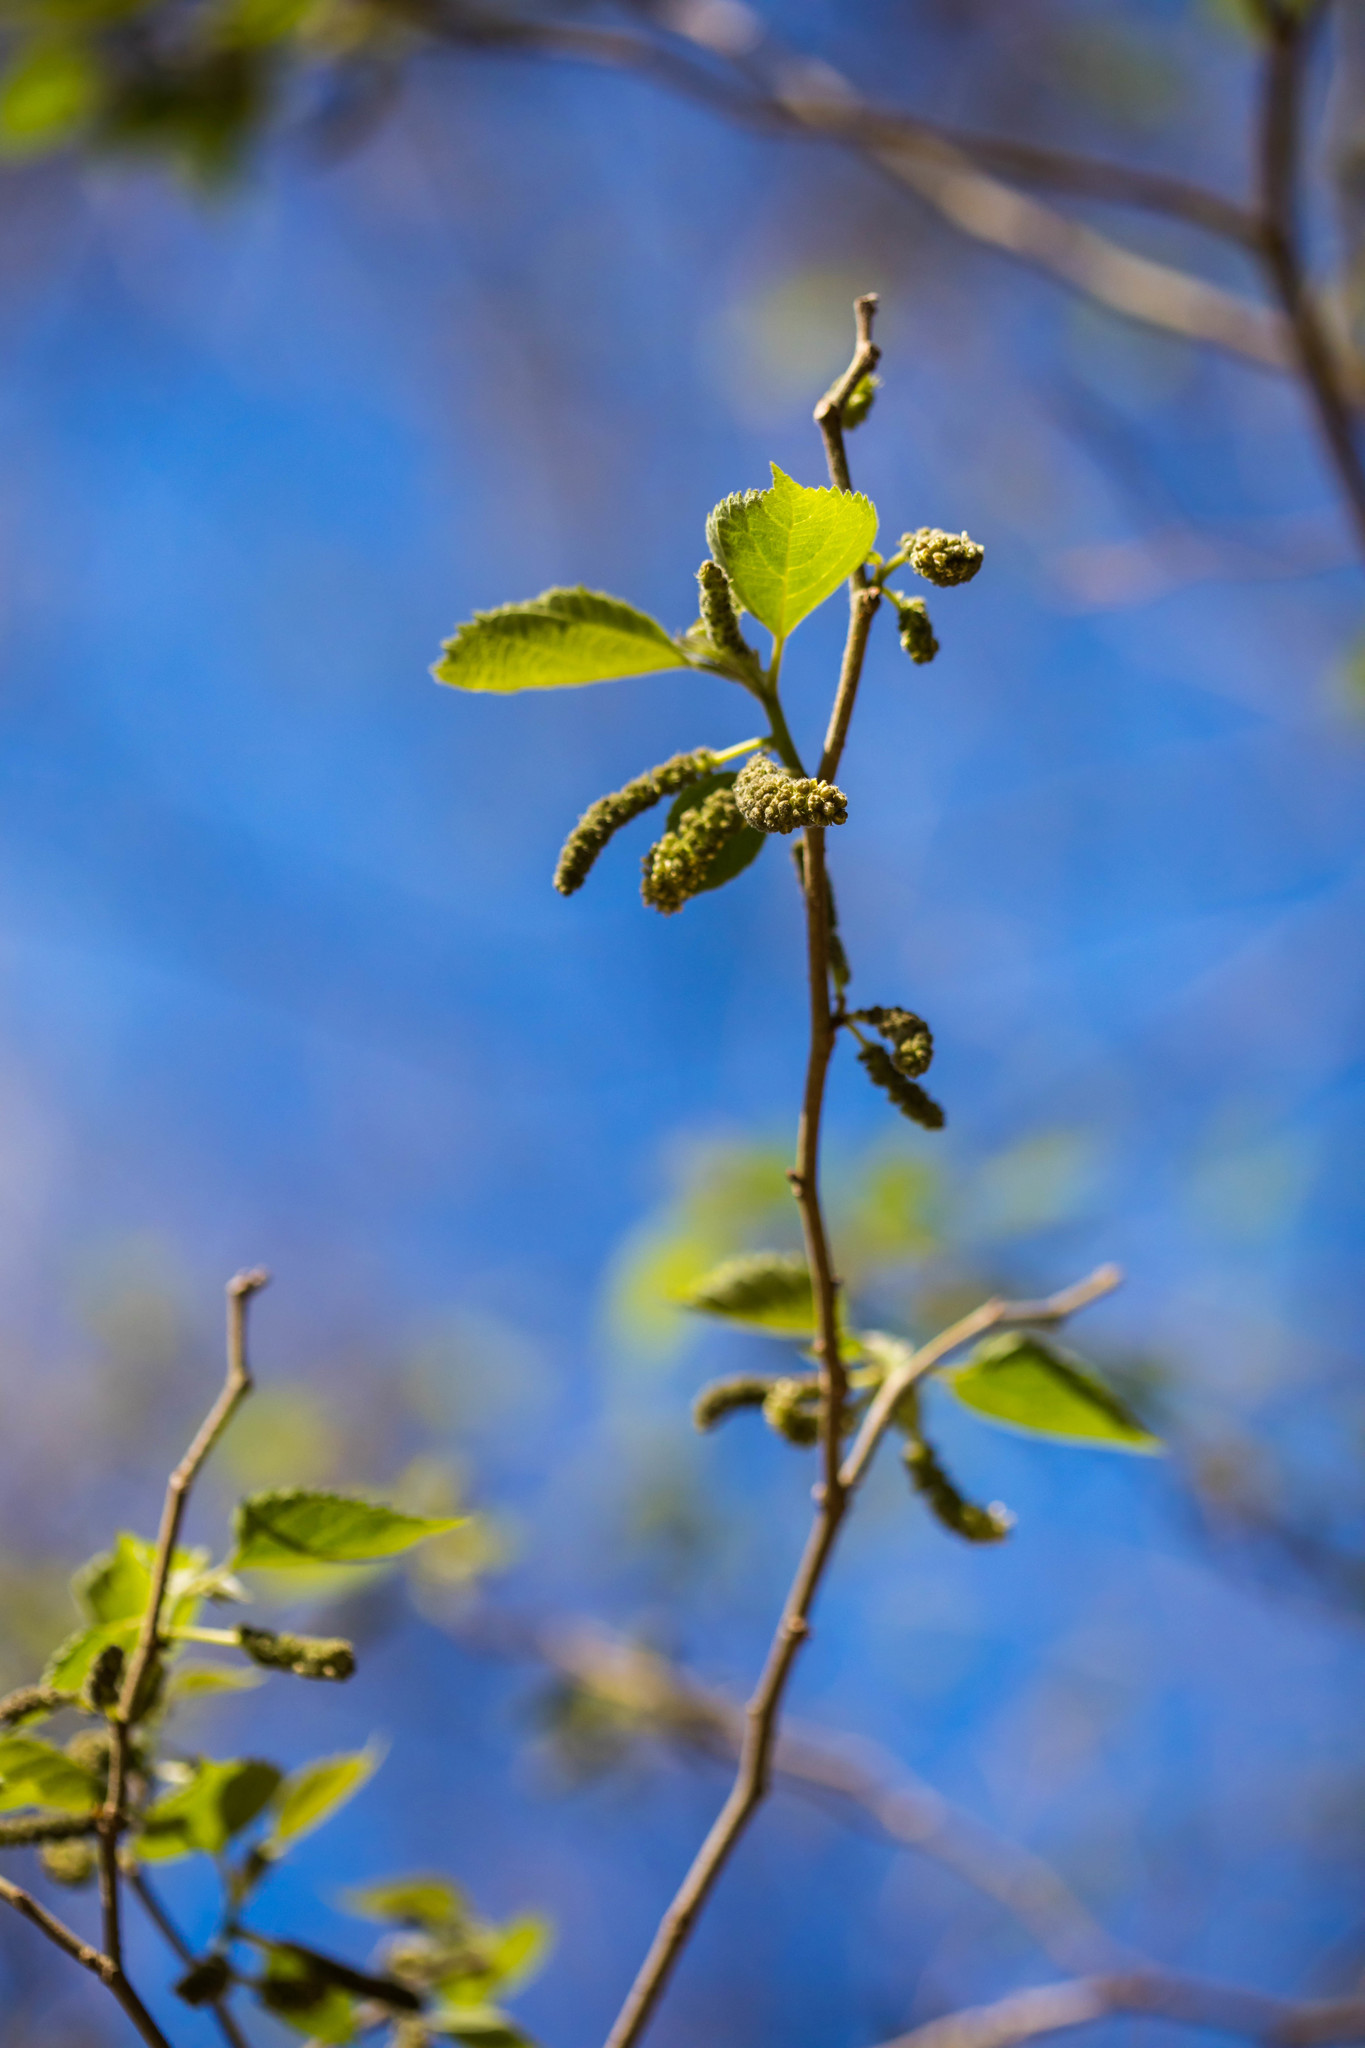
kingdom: Plantae
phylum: Tracheophyta
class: Magnoliopsida
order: Rosales
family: Moraceae
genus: Broussonetia
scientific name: Broussonetia papyrifera
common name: Paper mulberry
